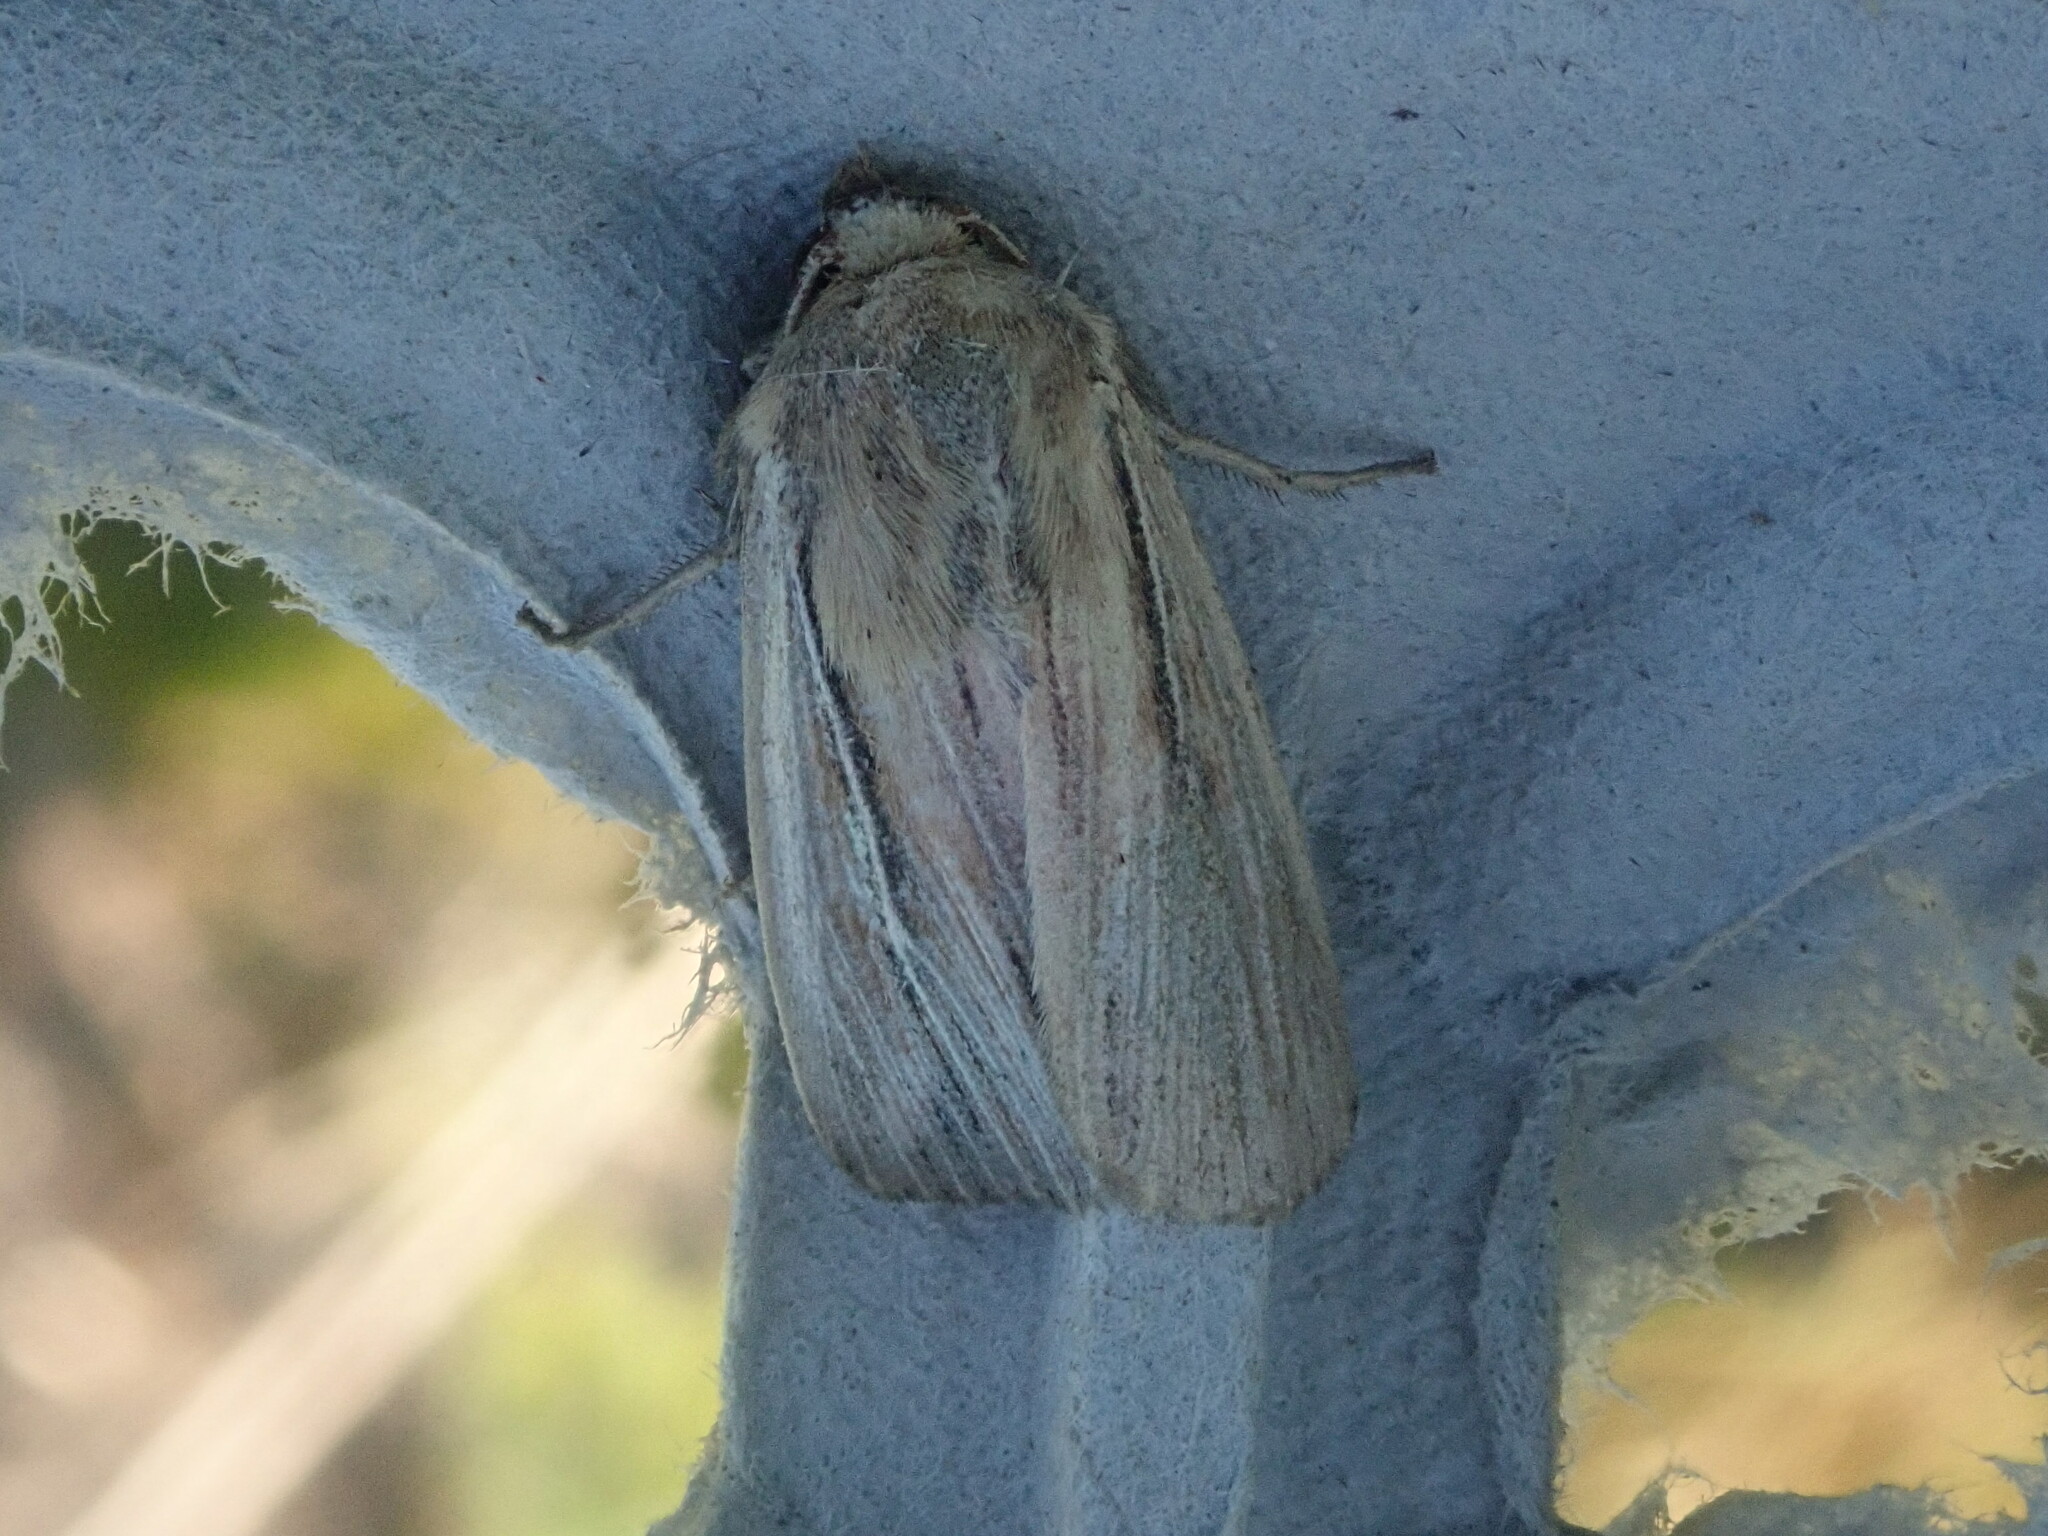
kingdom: Animalia
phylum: Arthropoda
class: Insecta
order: Lepidoptera
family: Noctuidae
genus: Leucania
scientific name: Leucania commoides
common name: Two-lined wainscot
